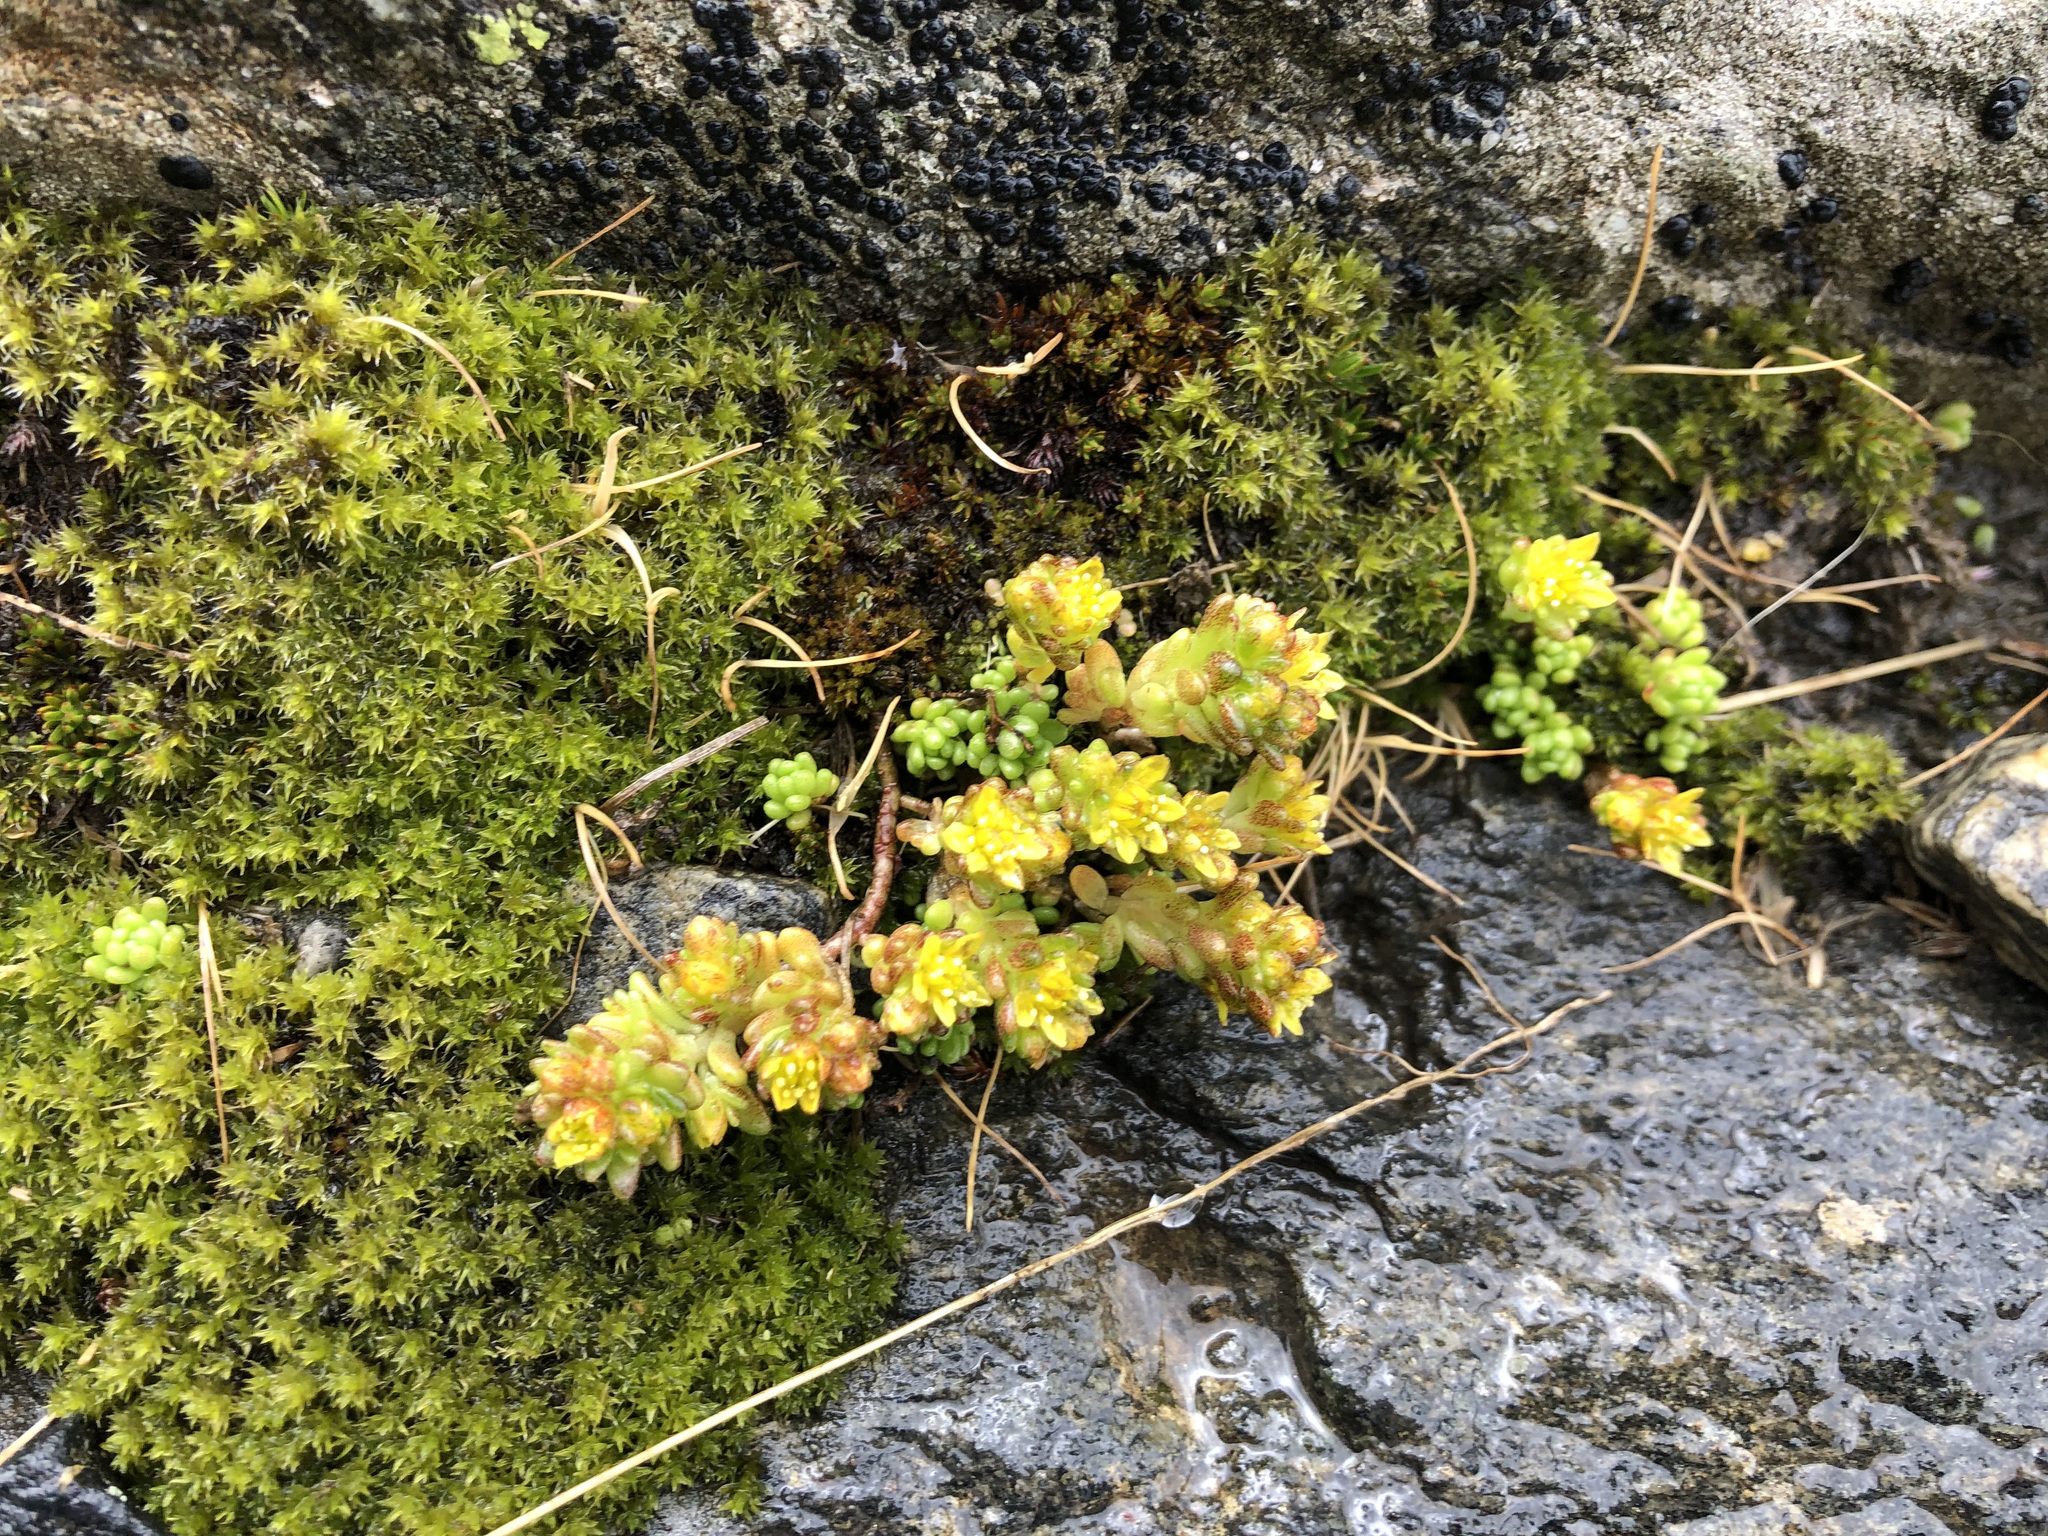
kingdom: Plantae
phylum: Tracheophyta
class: Magnoliopsida
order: Saxifragales
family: Crassulaceae
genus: Sedum
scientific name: Sedum alpestre
